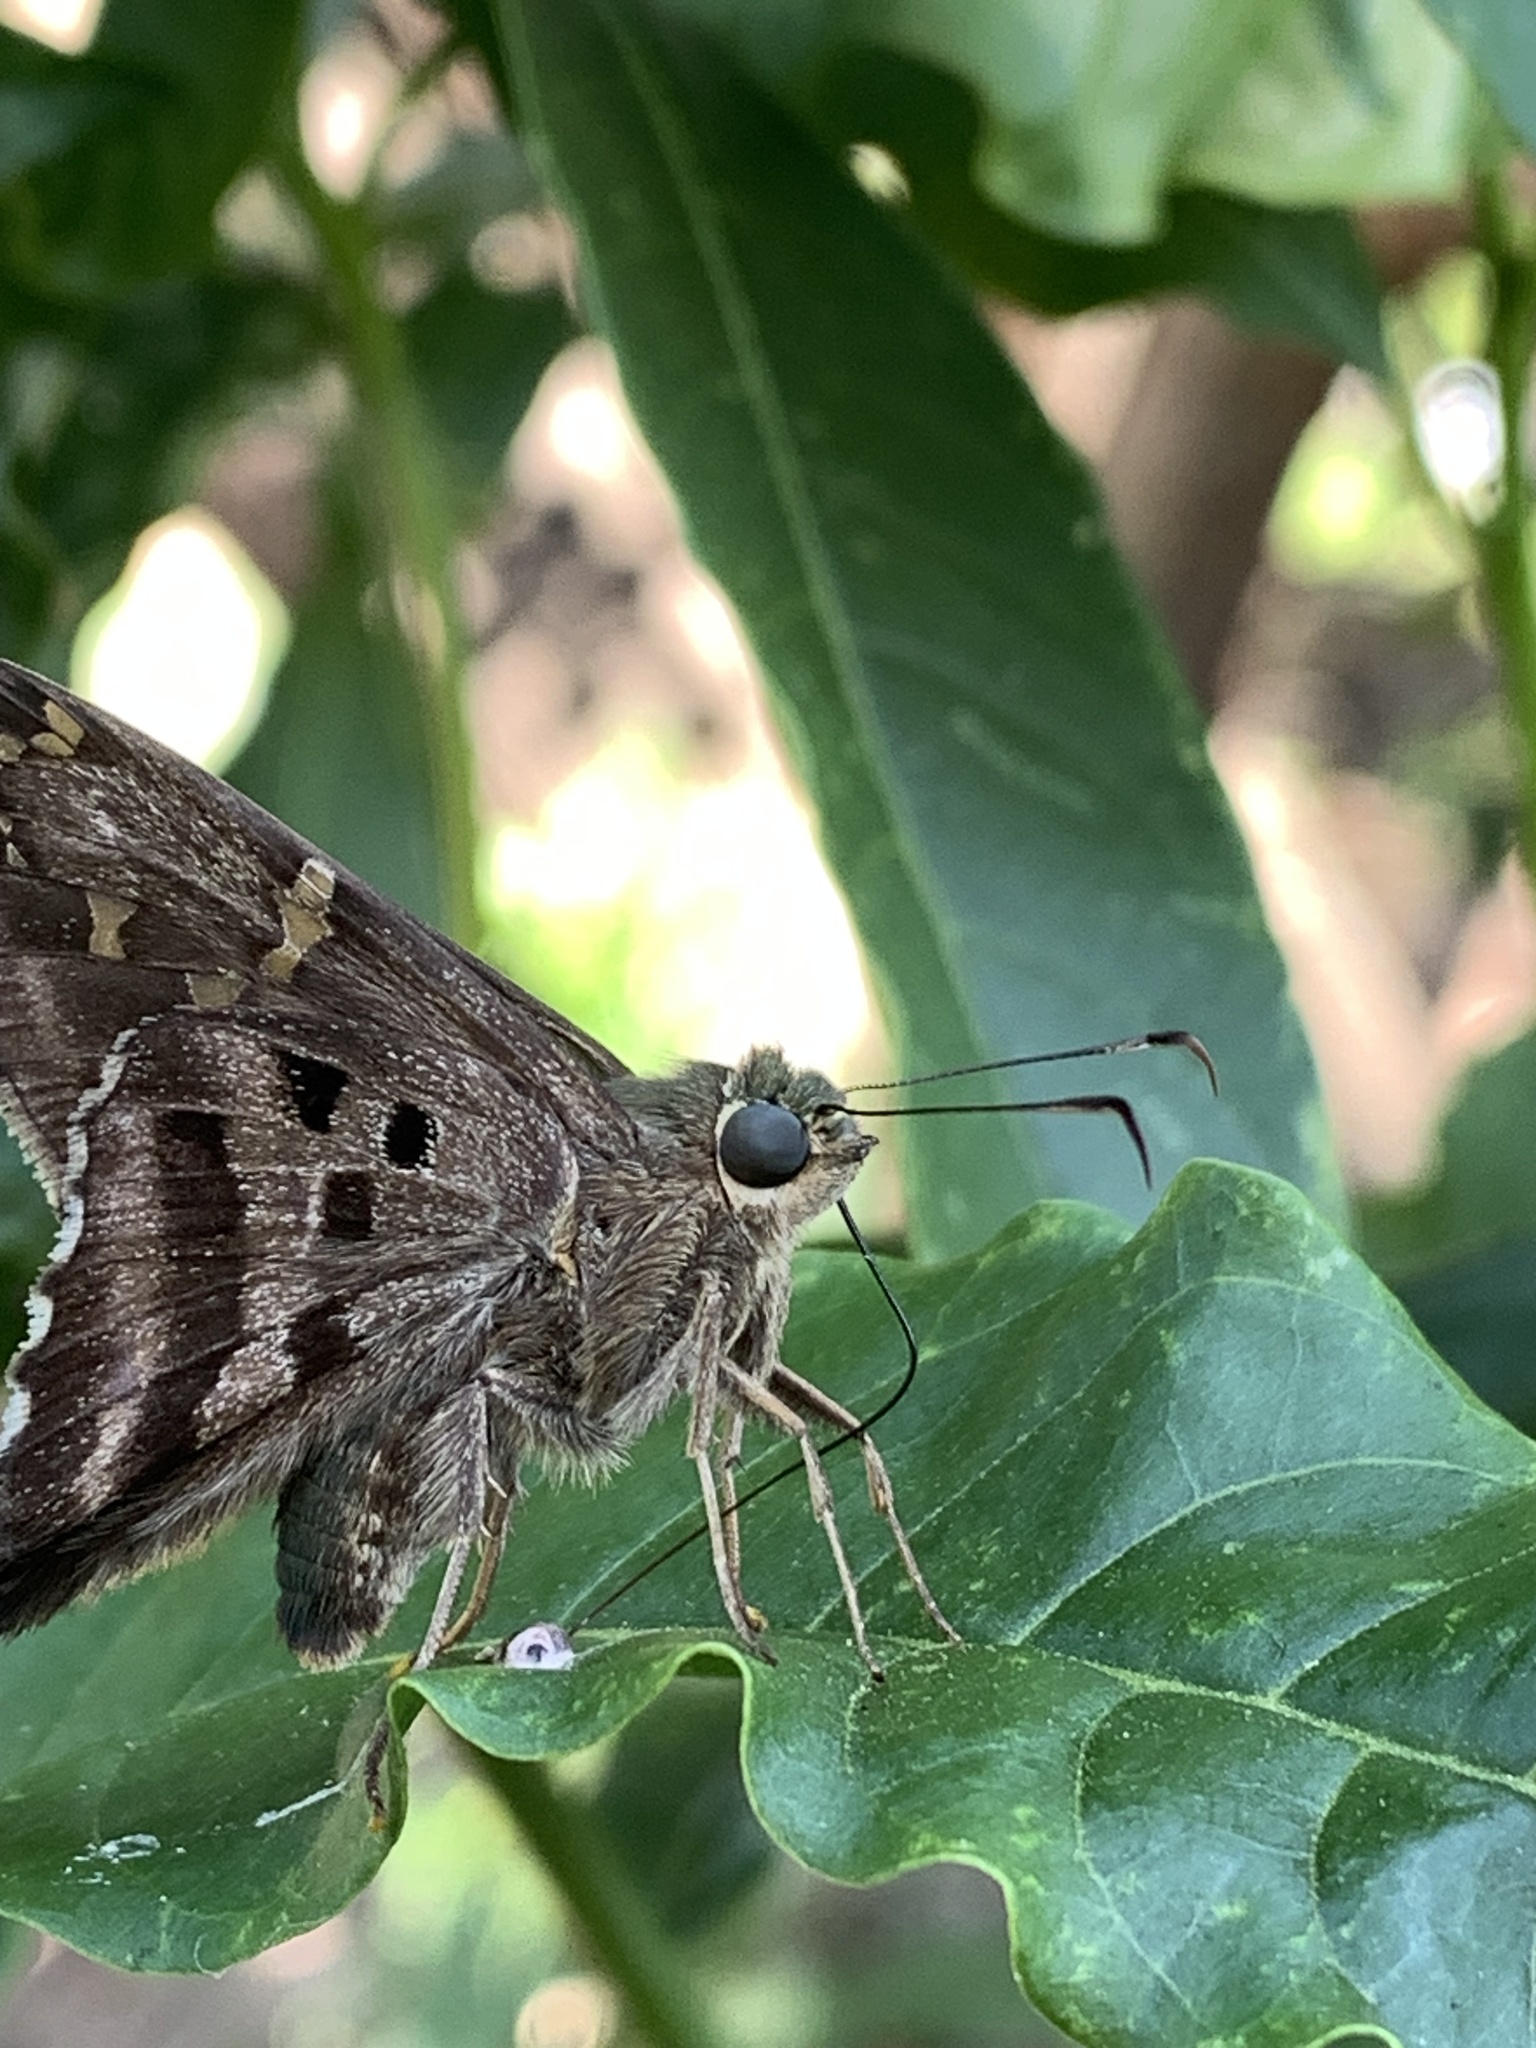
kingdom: Animalia
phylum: Arthropoda
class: Insecta
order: Lepidoptera
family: Hesperiidae
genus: Urbanus
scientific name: Urbanus proteus
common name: Long-tailed skipper
